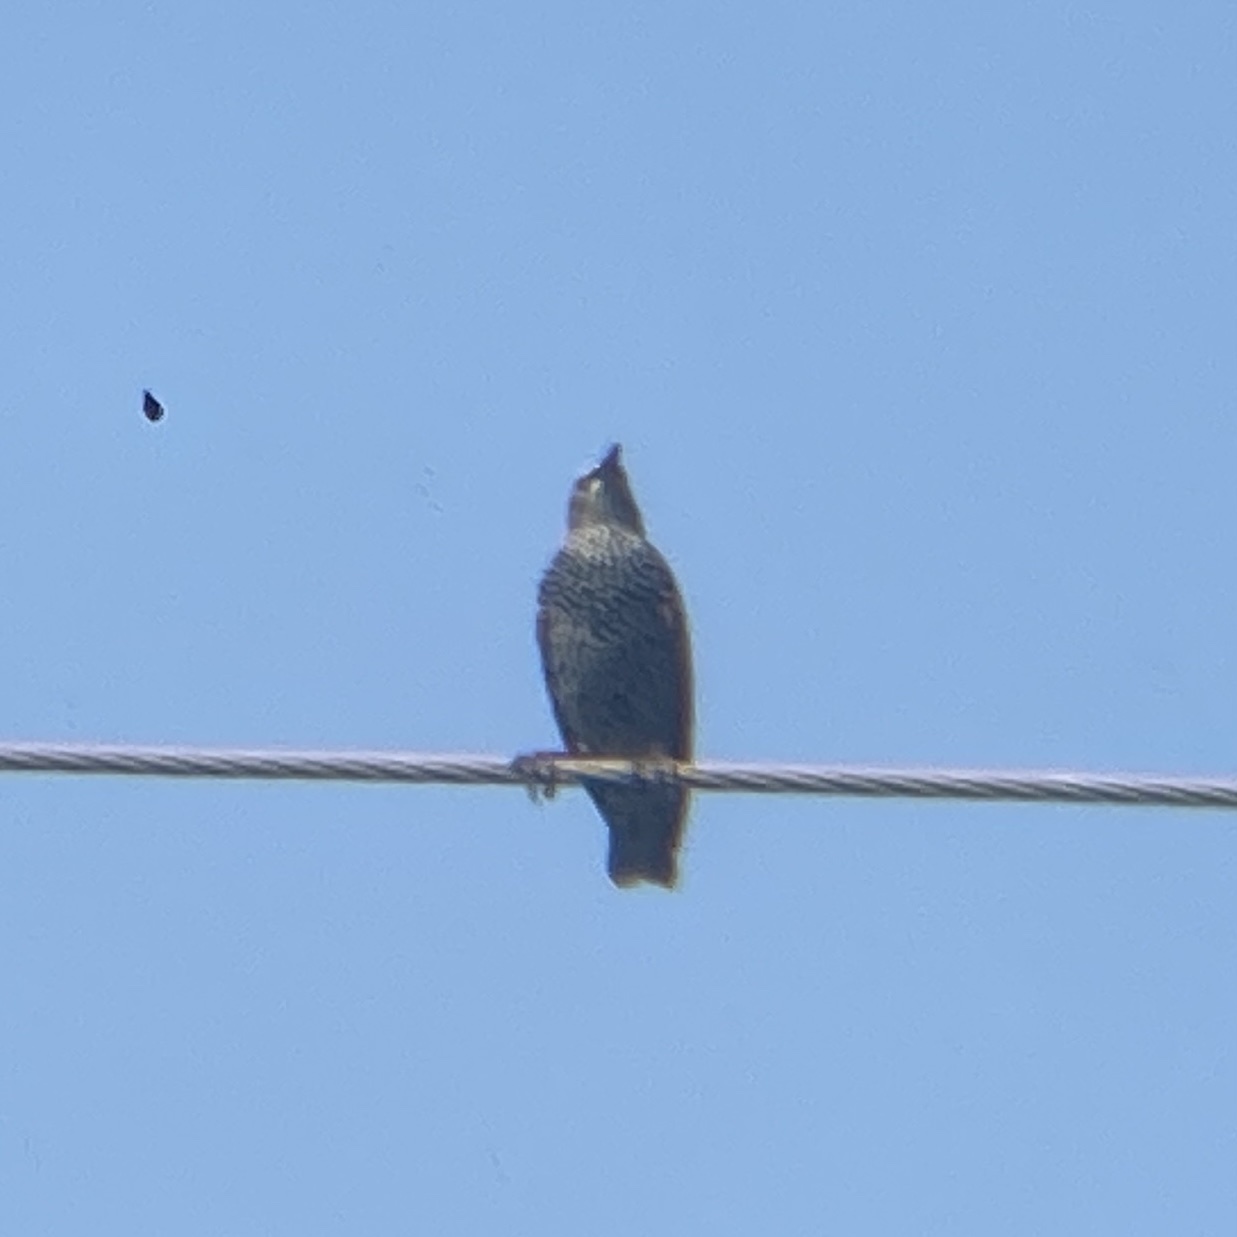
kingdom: Animalia
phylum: Chordata
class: Aves
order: Passeriformes
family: Sturnidae
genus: Sturnus
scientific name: Sturnus vulgaris
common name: Common starling
